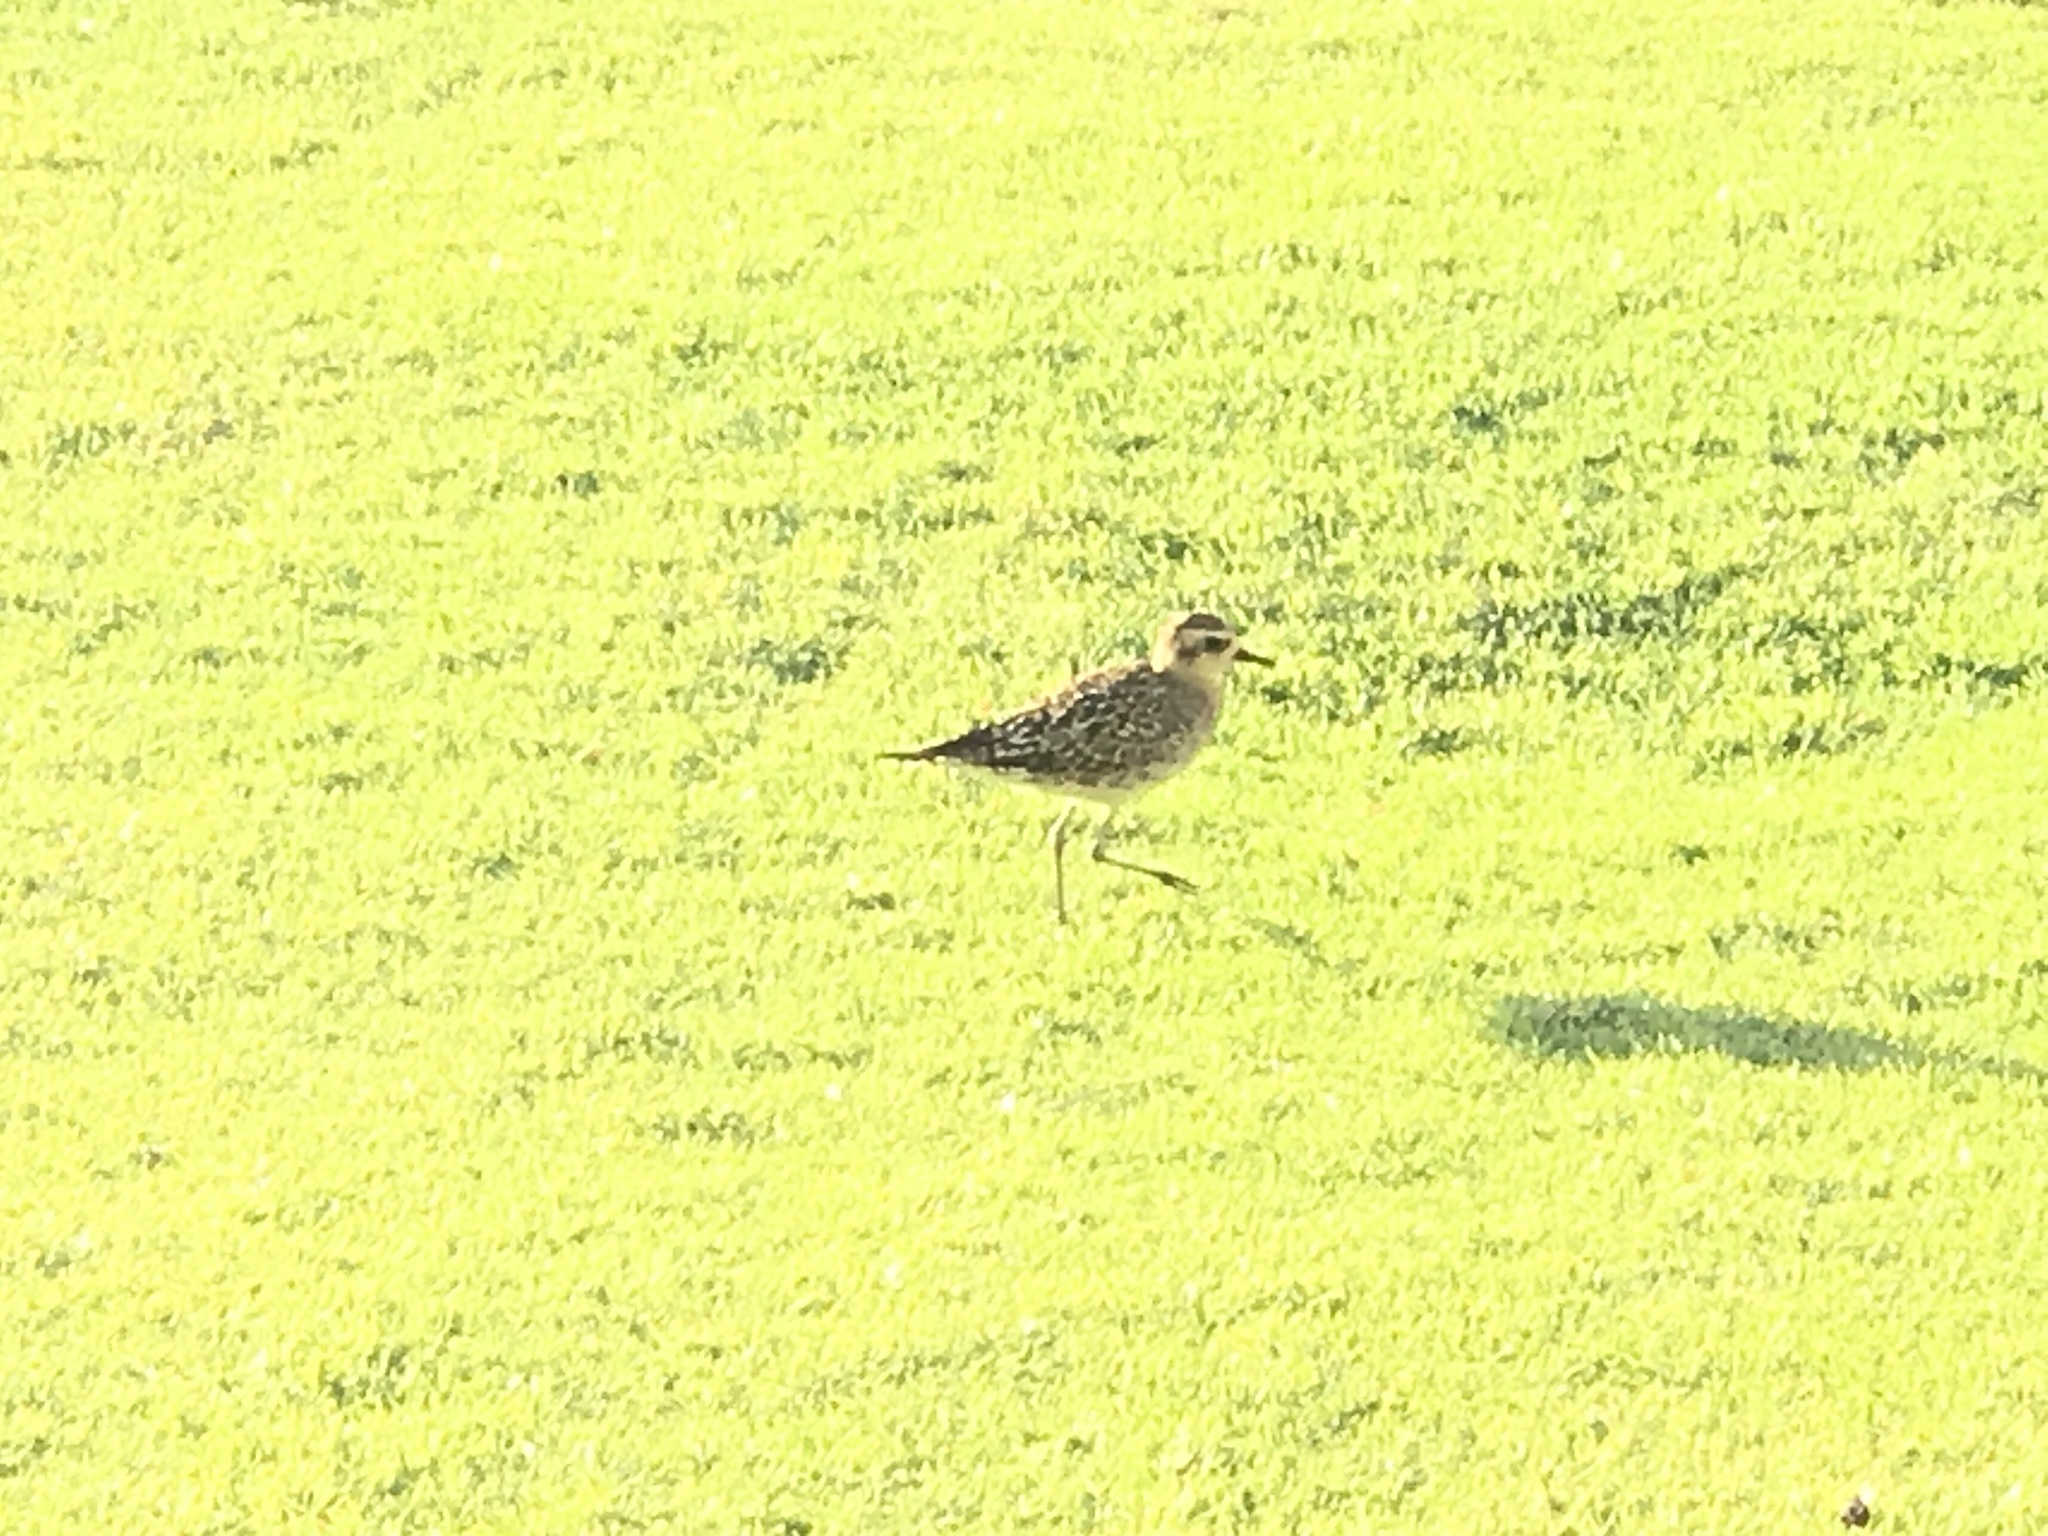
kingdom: Animalia
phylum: Chordata
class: Aves
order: Charadriiformes
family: Charadriidae
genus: Pluvialis
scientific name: Pluvialis fulva
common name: Pacific golden plover
